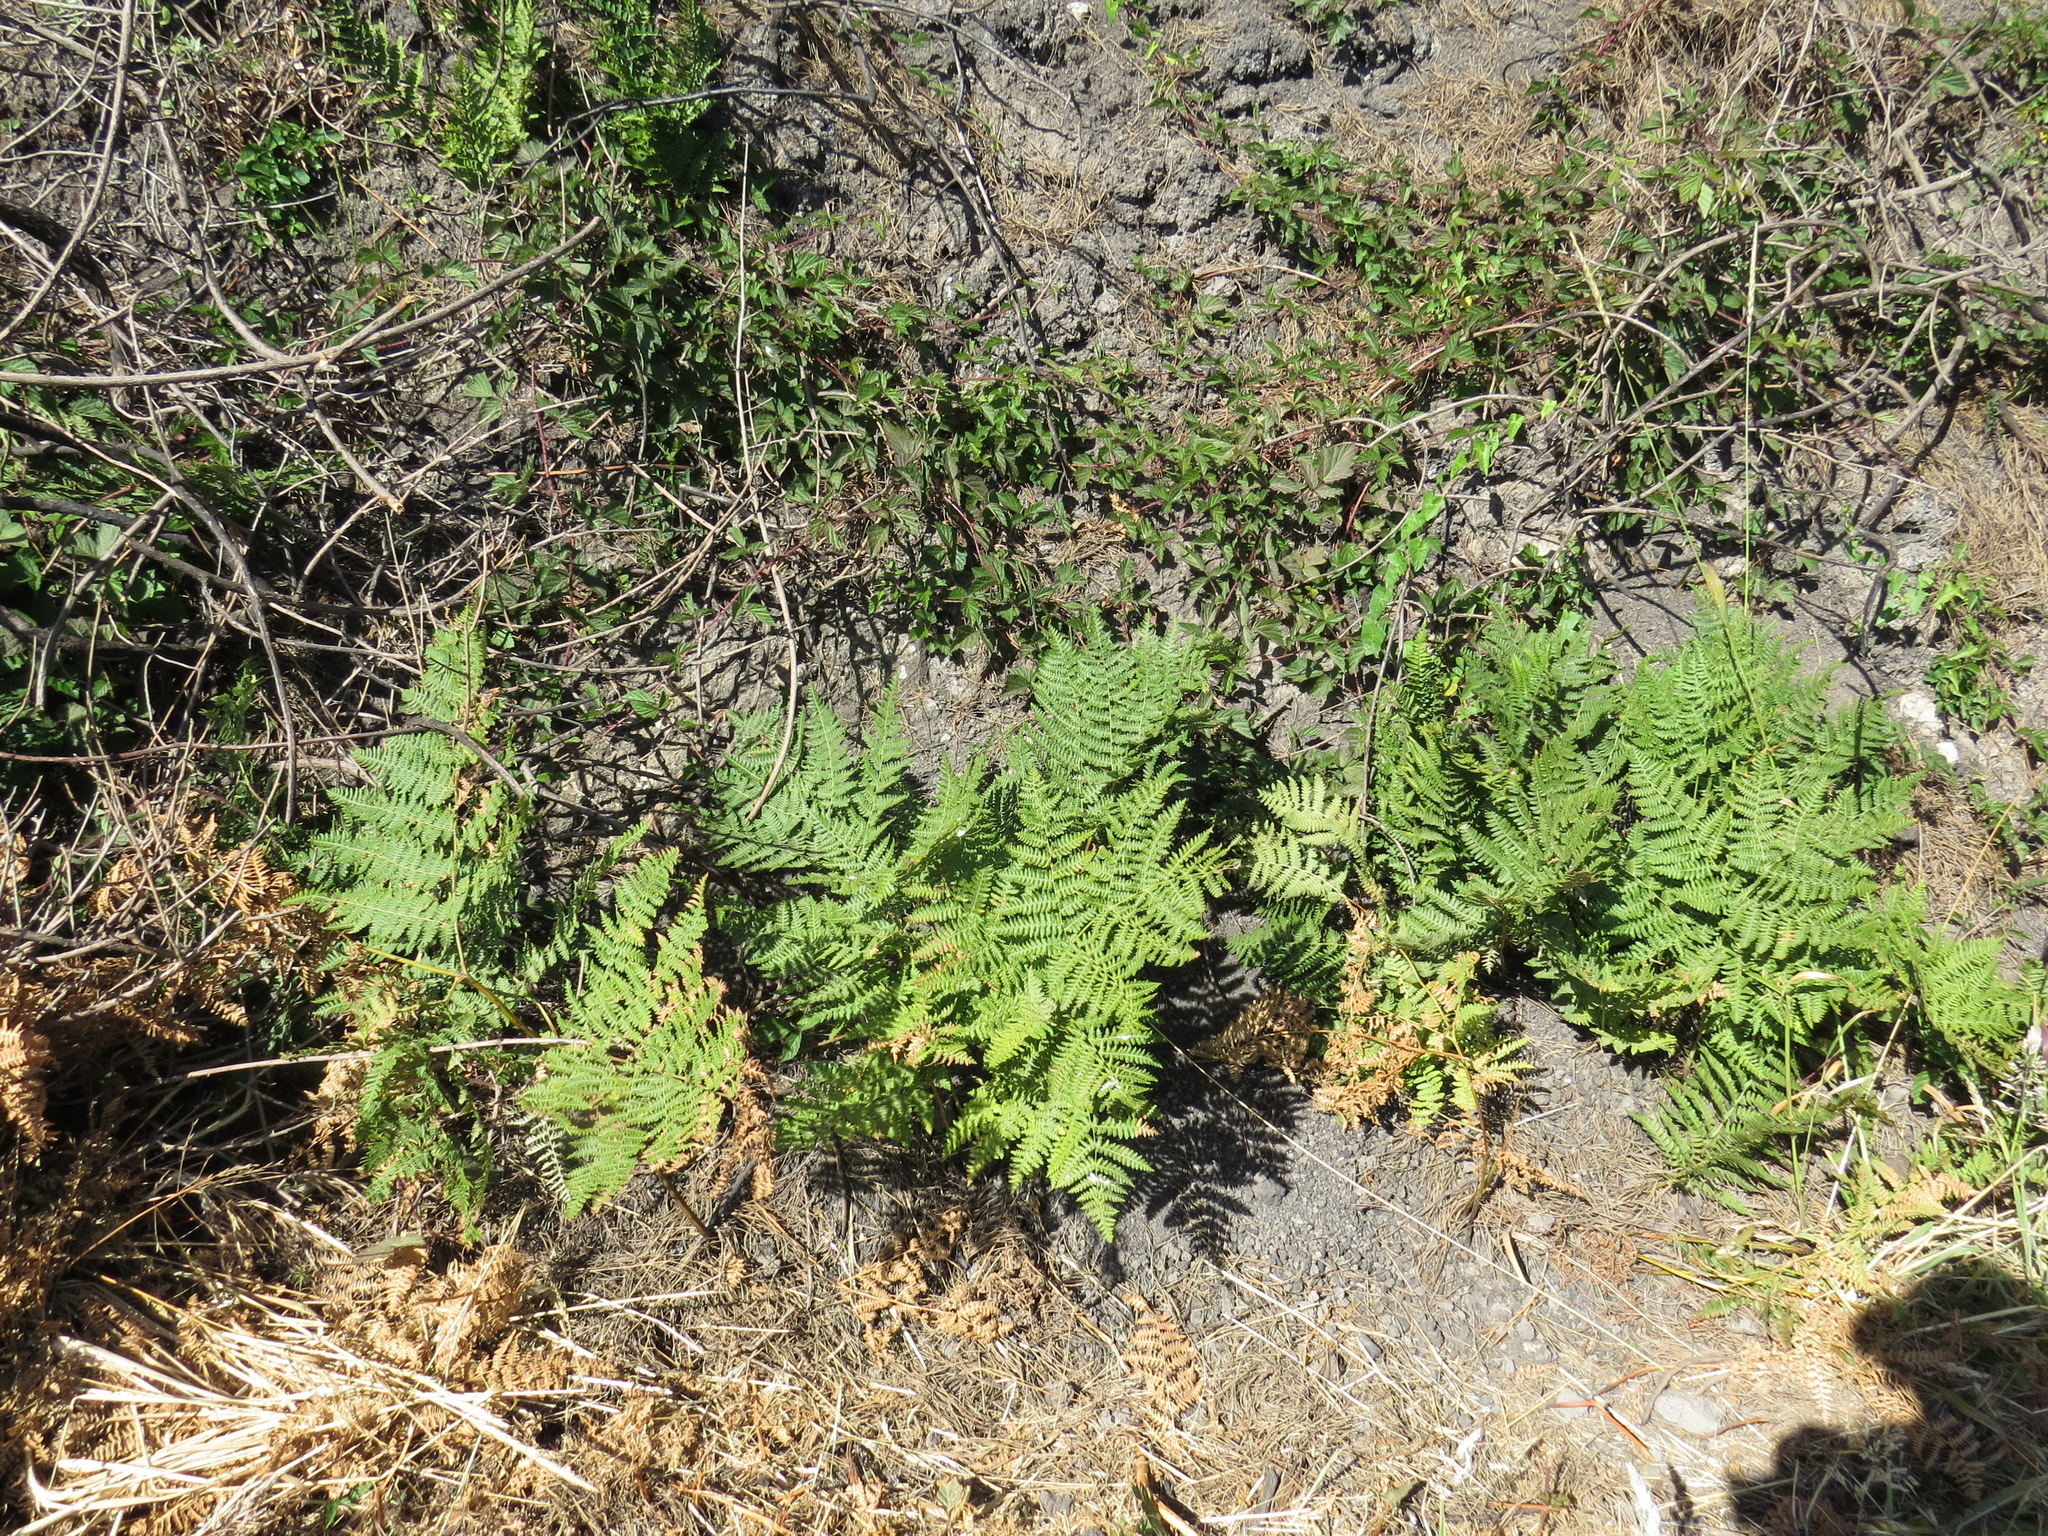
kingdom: Plantae
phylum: Tracheophyta
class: Polypodiopsida
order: Polypodiales
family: Dennstaedtiaceae
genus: Pteridium
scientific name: Pteridium aquilinum
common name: Bracken
